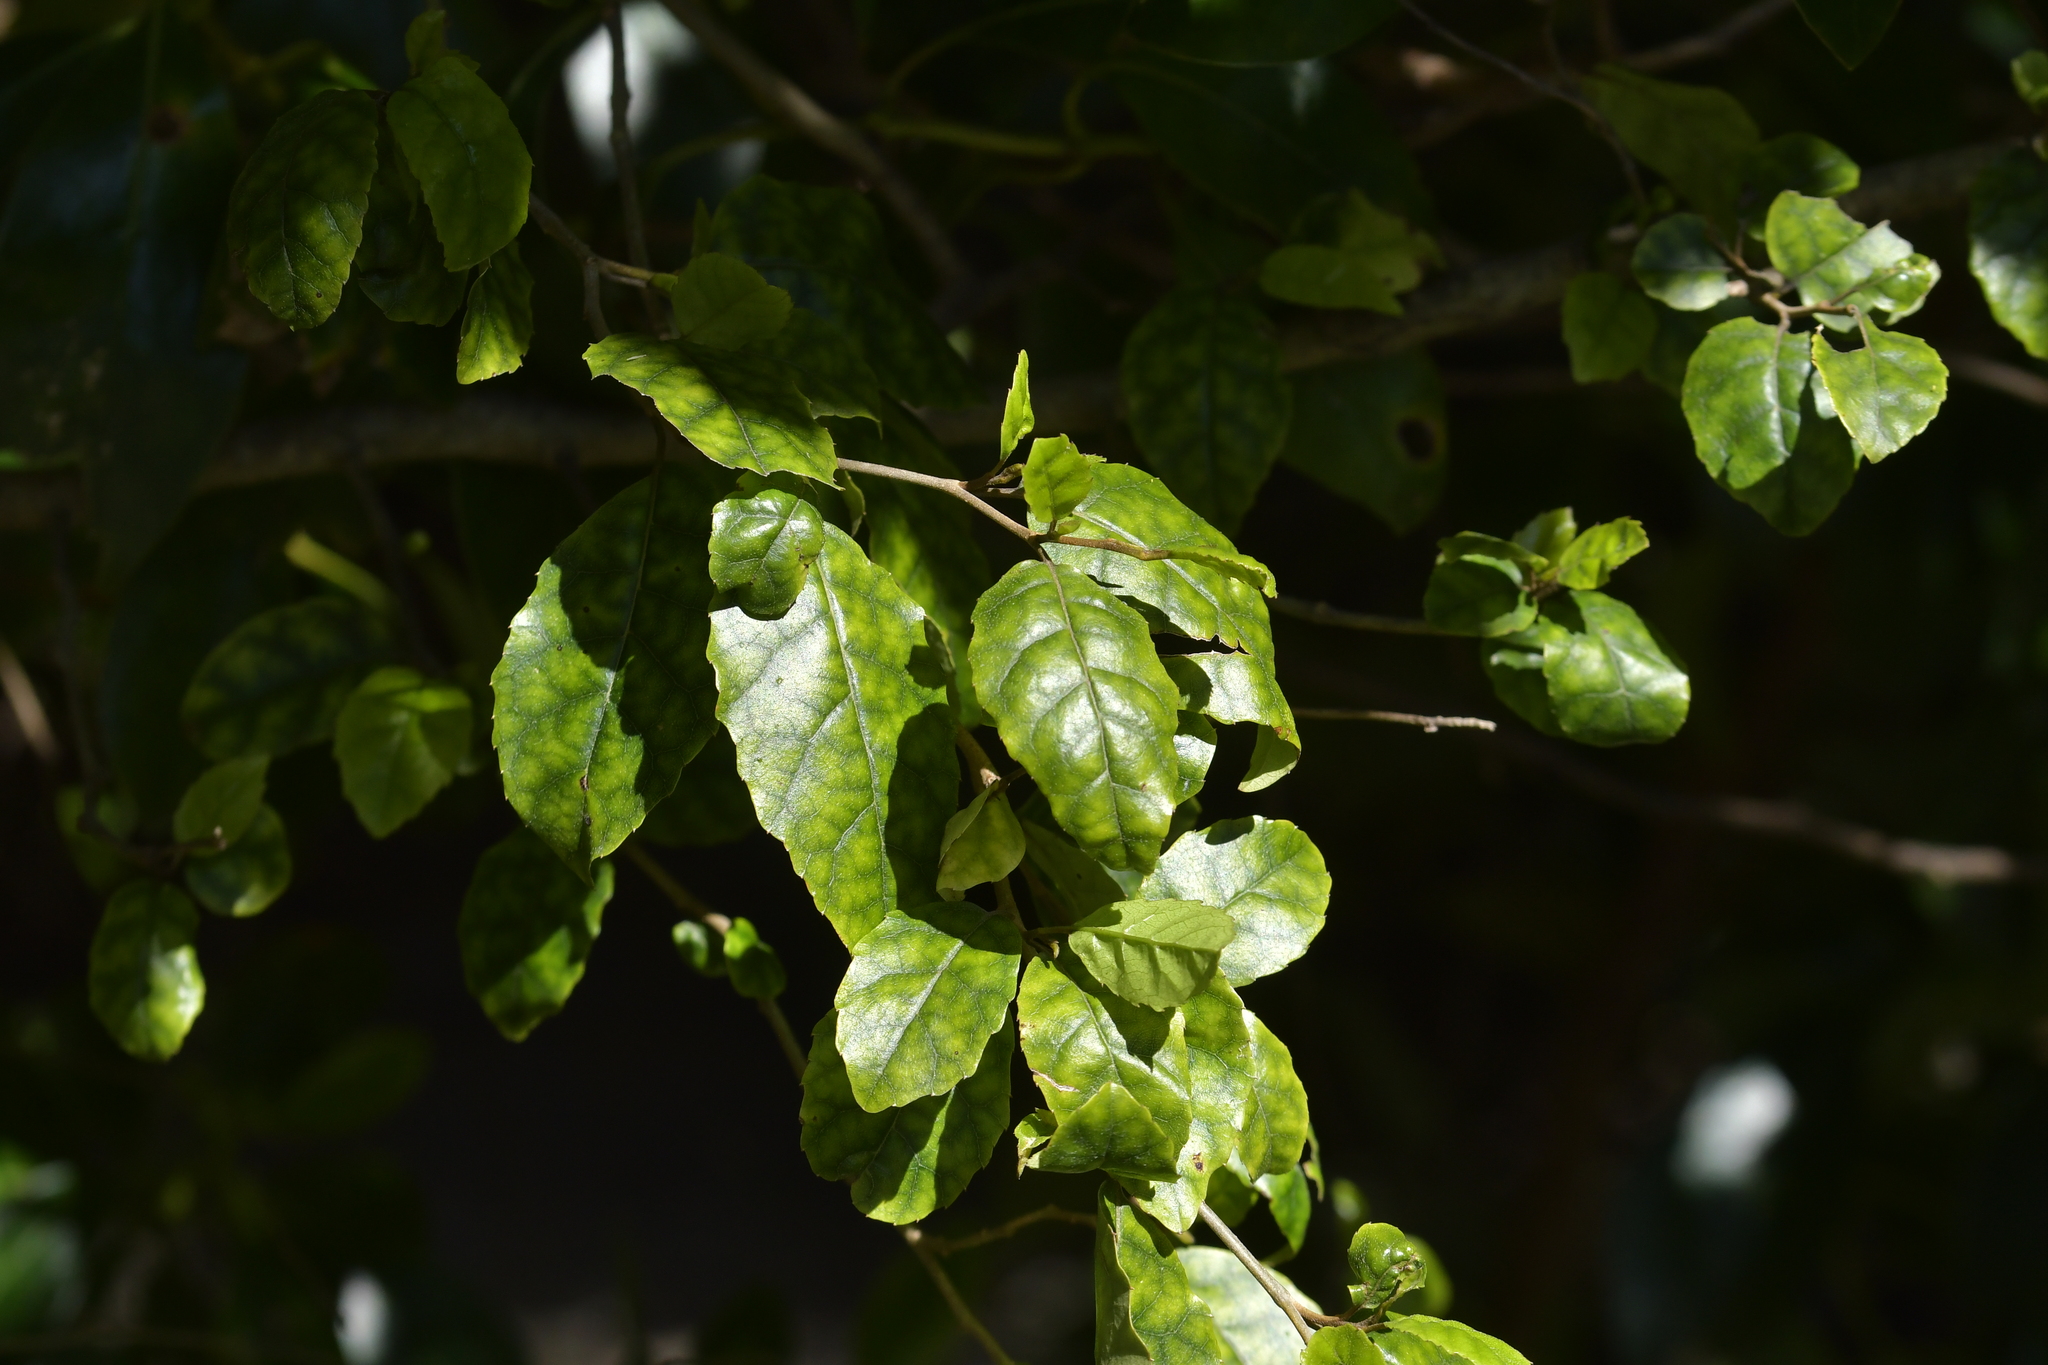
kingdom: Plantae
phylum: Tracheophyta
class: Magnoliopsida
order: Asterales
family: Rousseaceae
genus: Carpodetus
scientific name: Carpodetus serratus
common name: White mapau
